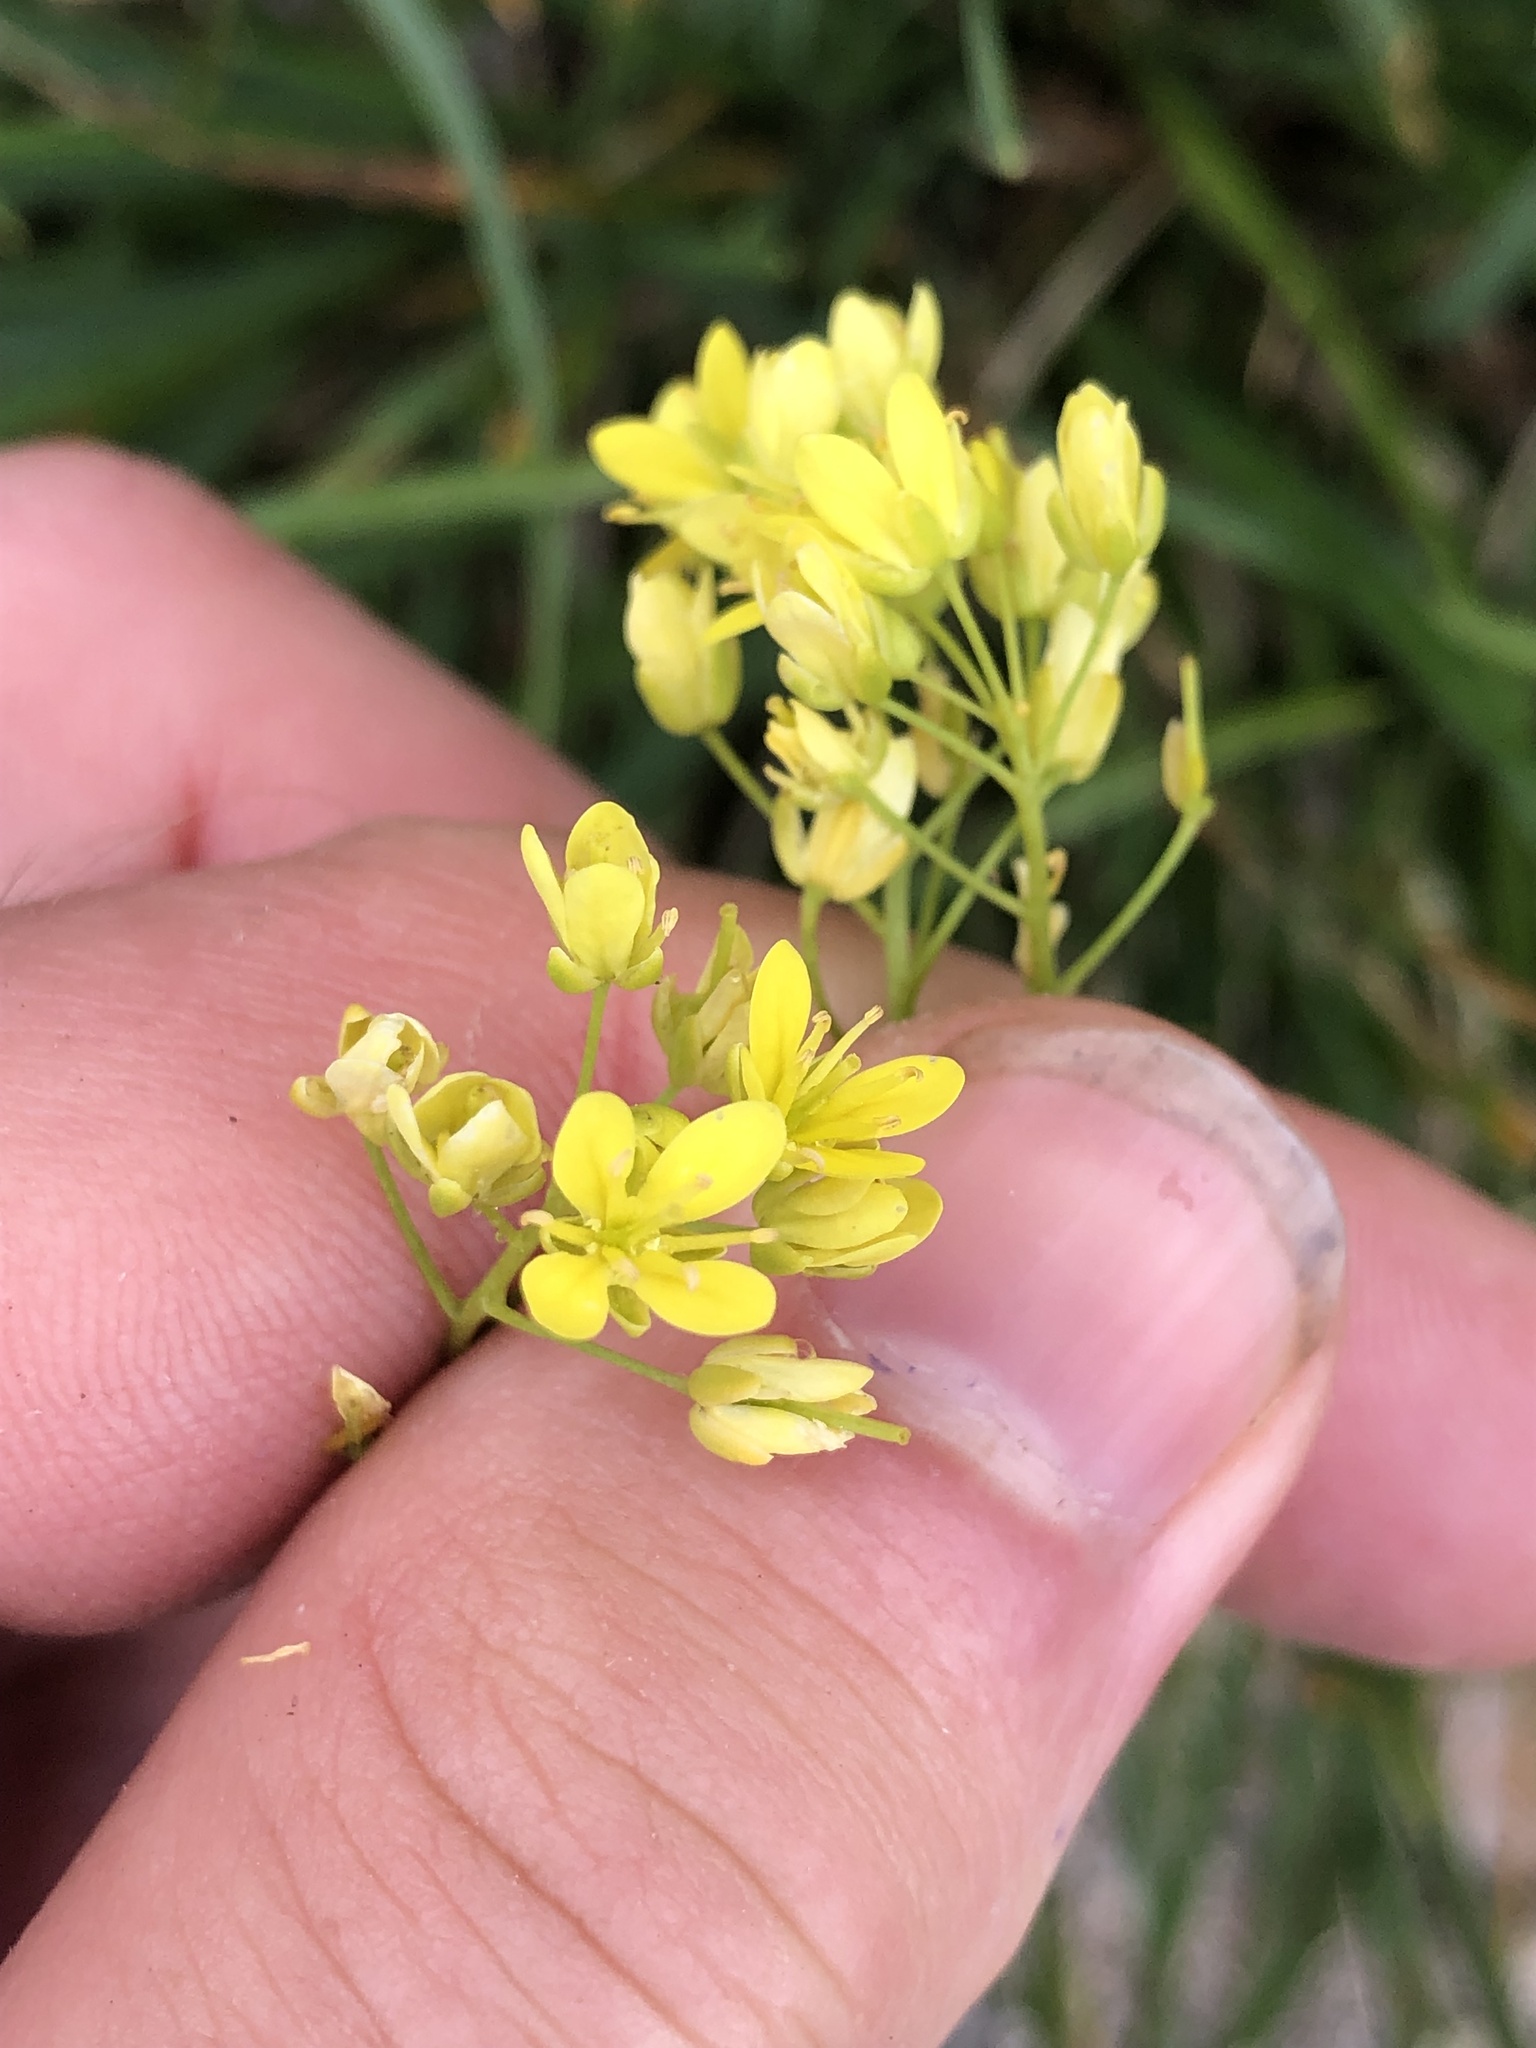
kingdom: Plantae
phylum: Tracheophyta
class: Magnoliopsida
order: Brassicales
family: Brassicaceae
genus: Biscutella
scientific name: Biscutella laevigata
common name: Buckler mustard
